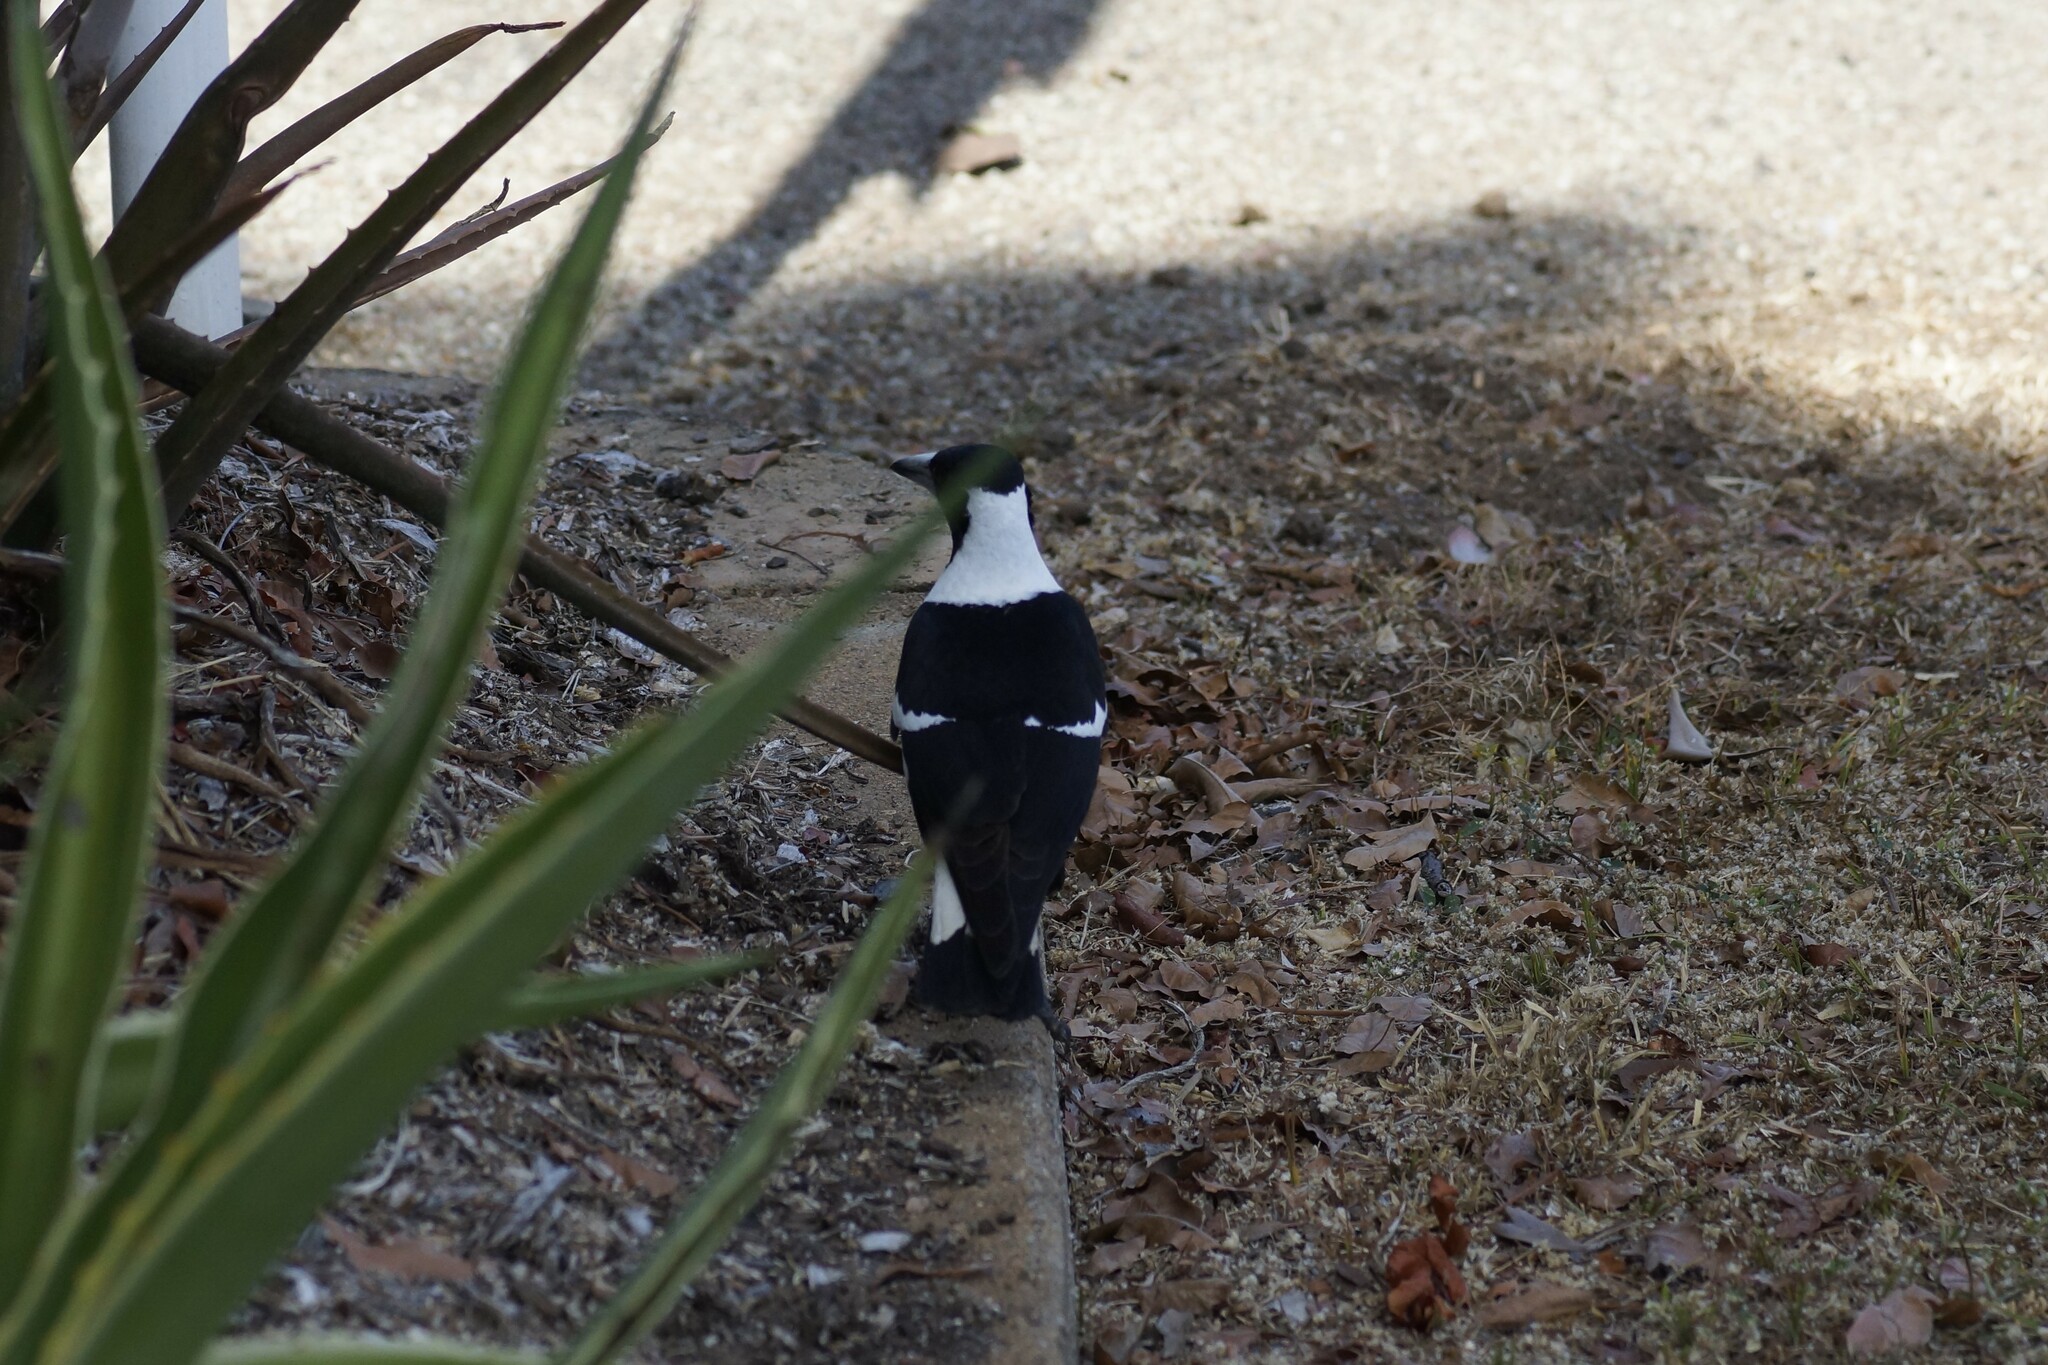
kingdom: Animalia
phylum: Chordata
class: Aves
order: Passeriformes
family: Cracticidae
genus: Gymnorhina
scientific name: Gymnorhina tibicen
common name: Australian magpie
